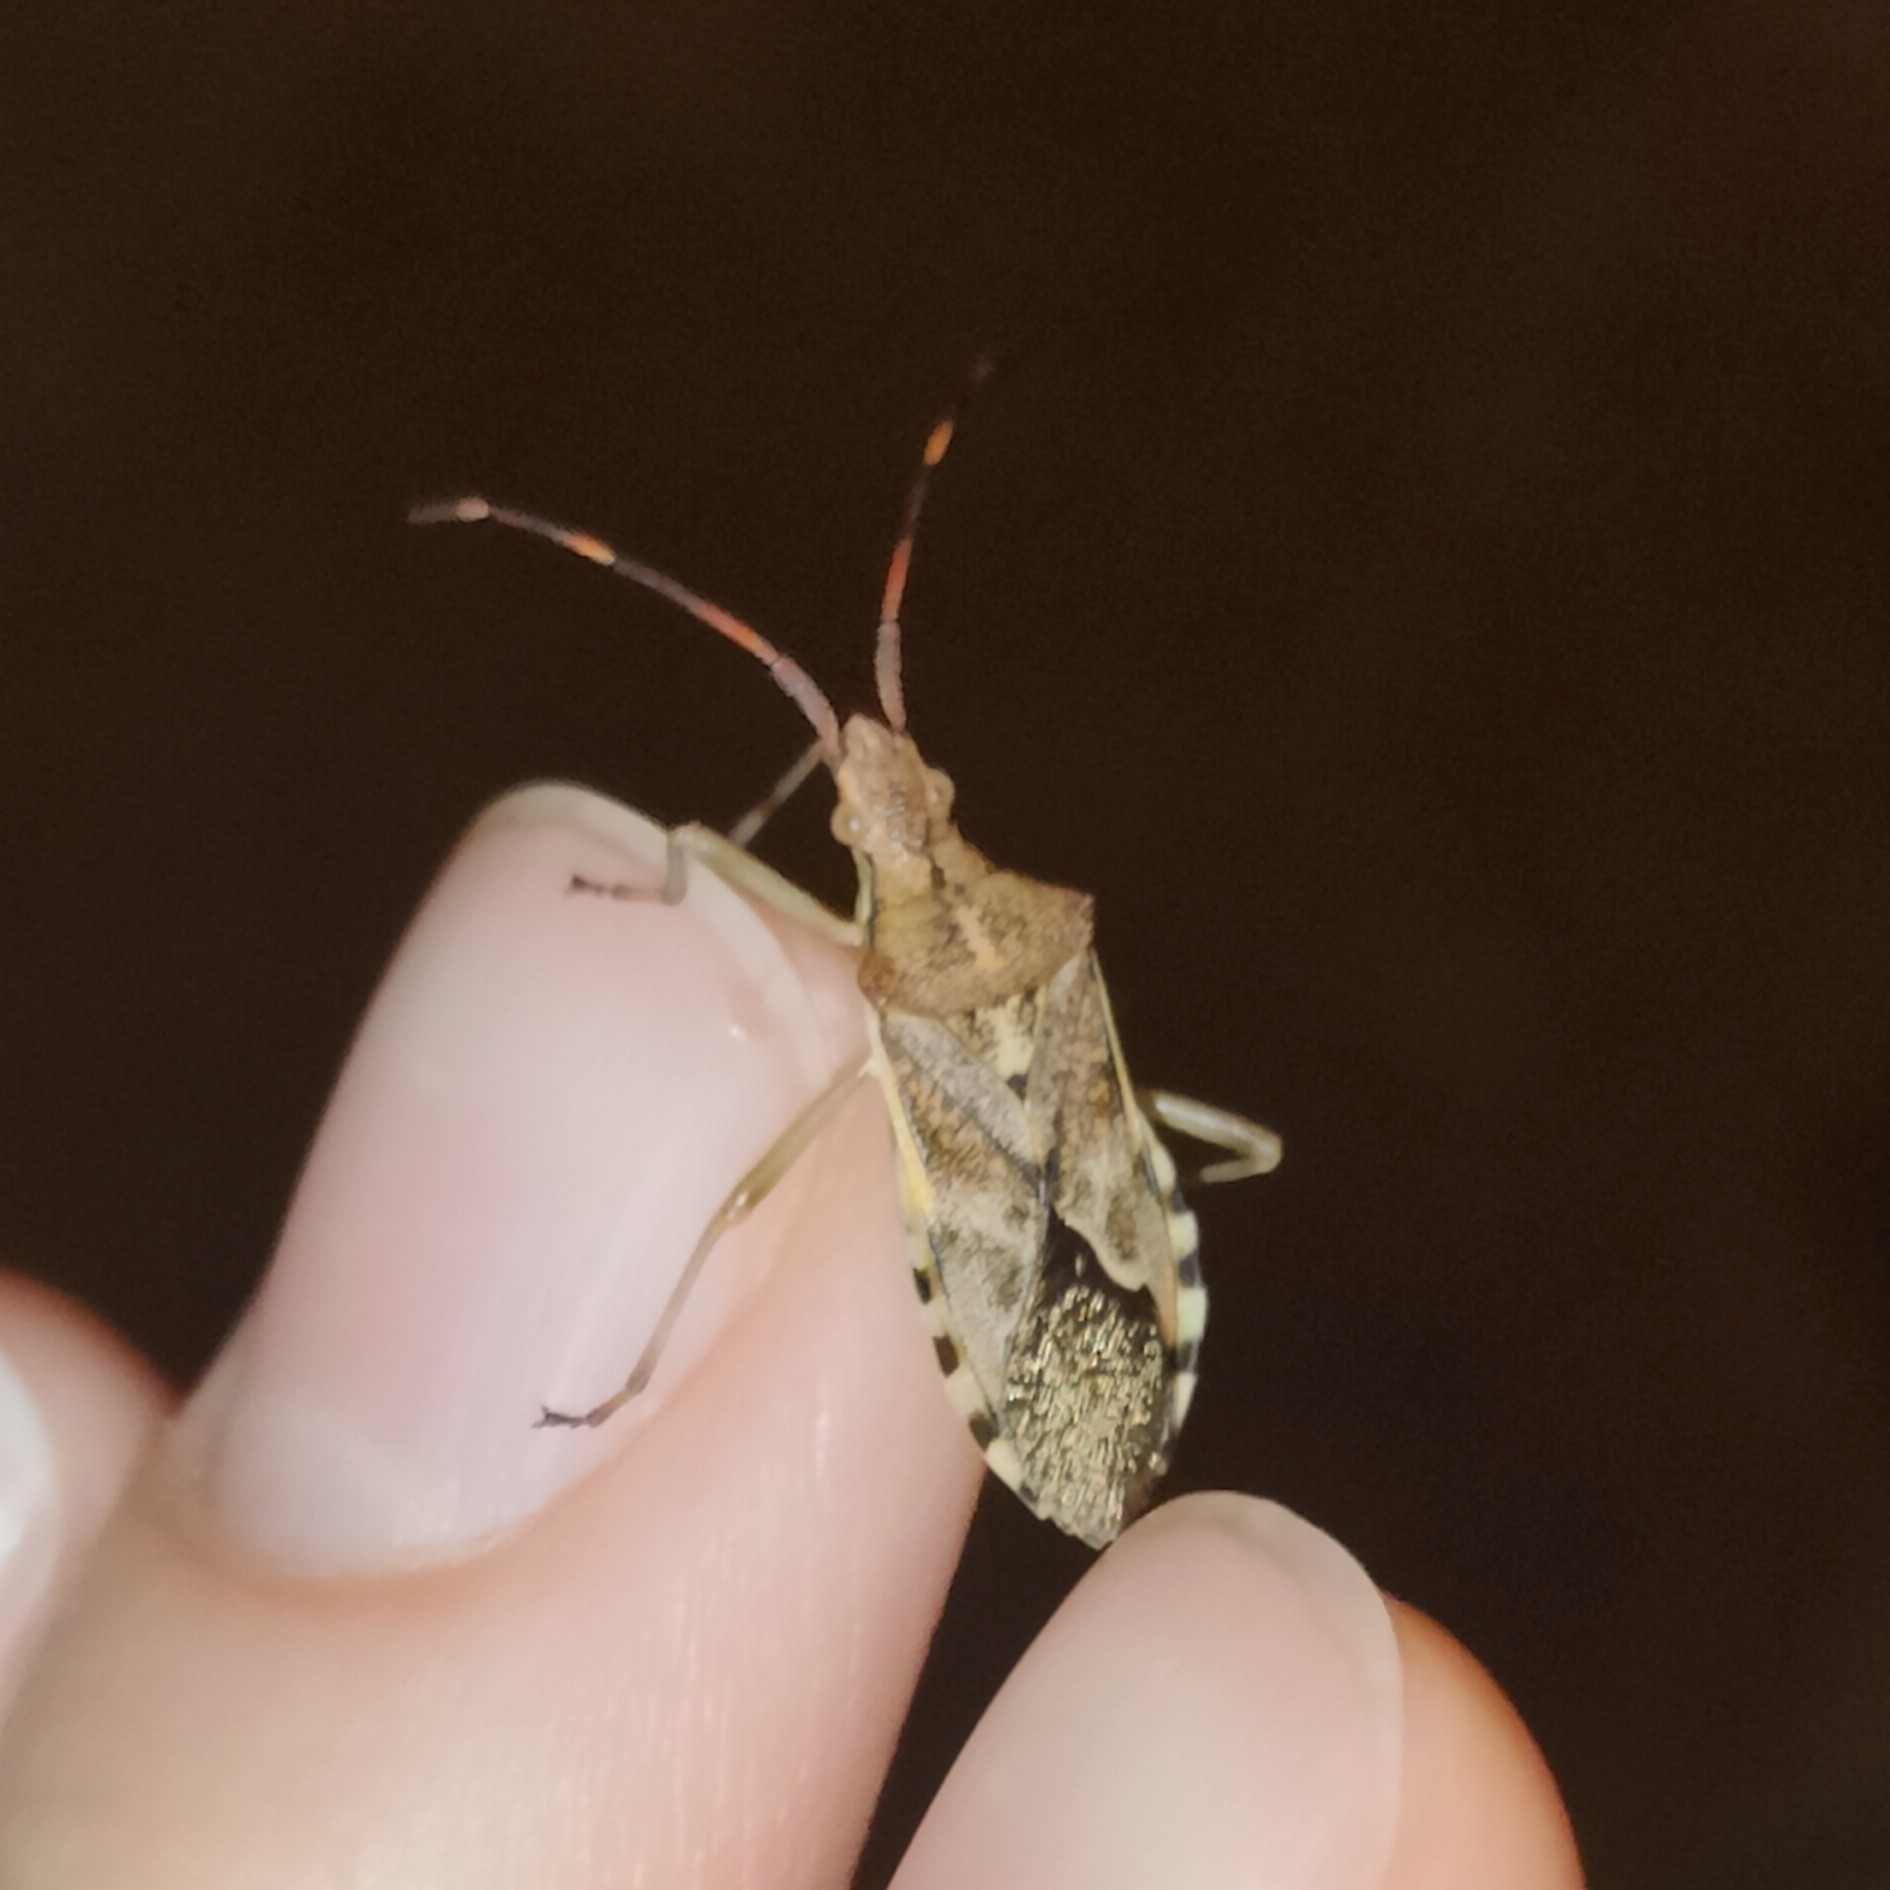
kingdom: Animalia
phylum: Arthropoda
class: Insecta
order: Hemiptera
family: Coreidae
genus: Gonocerus
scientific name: Gonocerus juniperi
